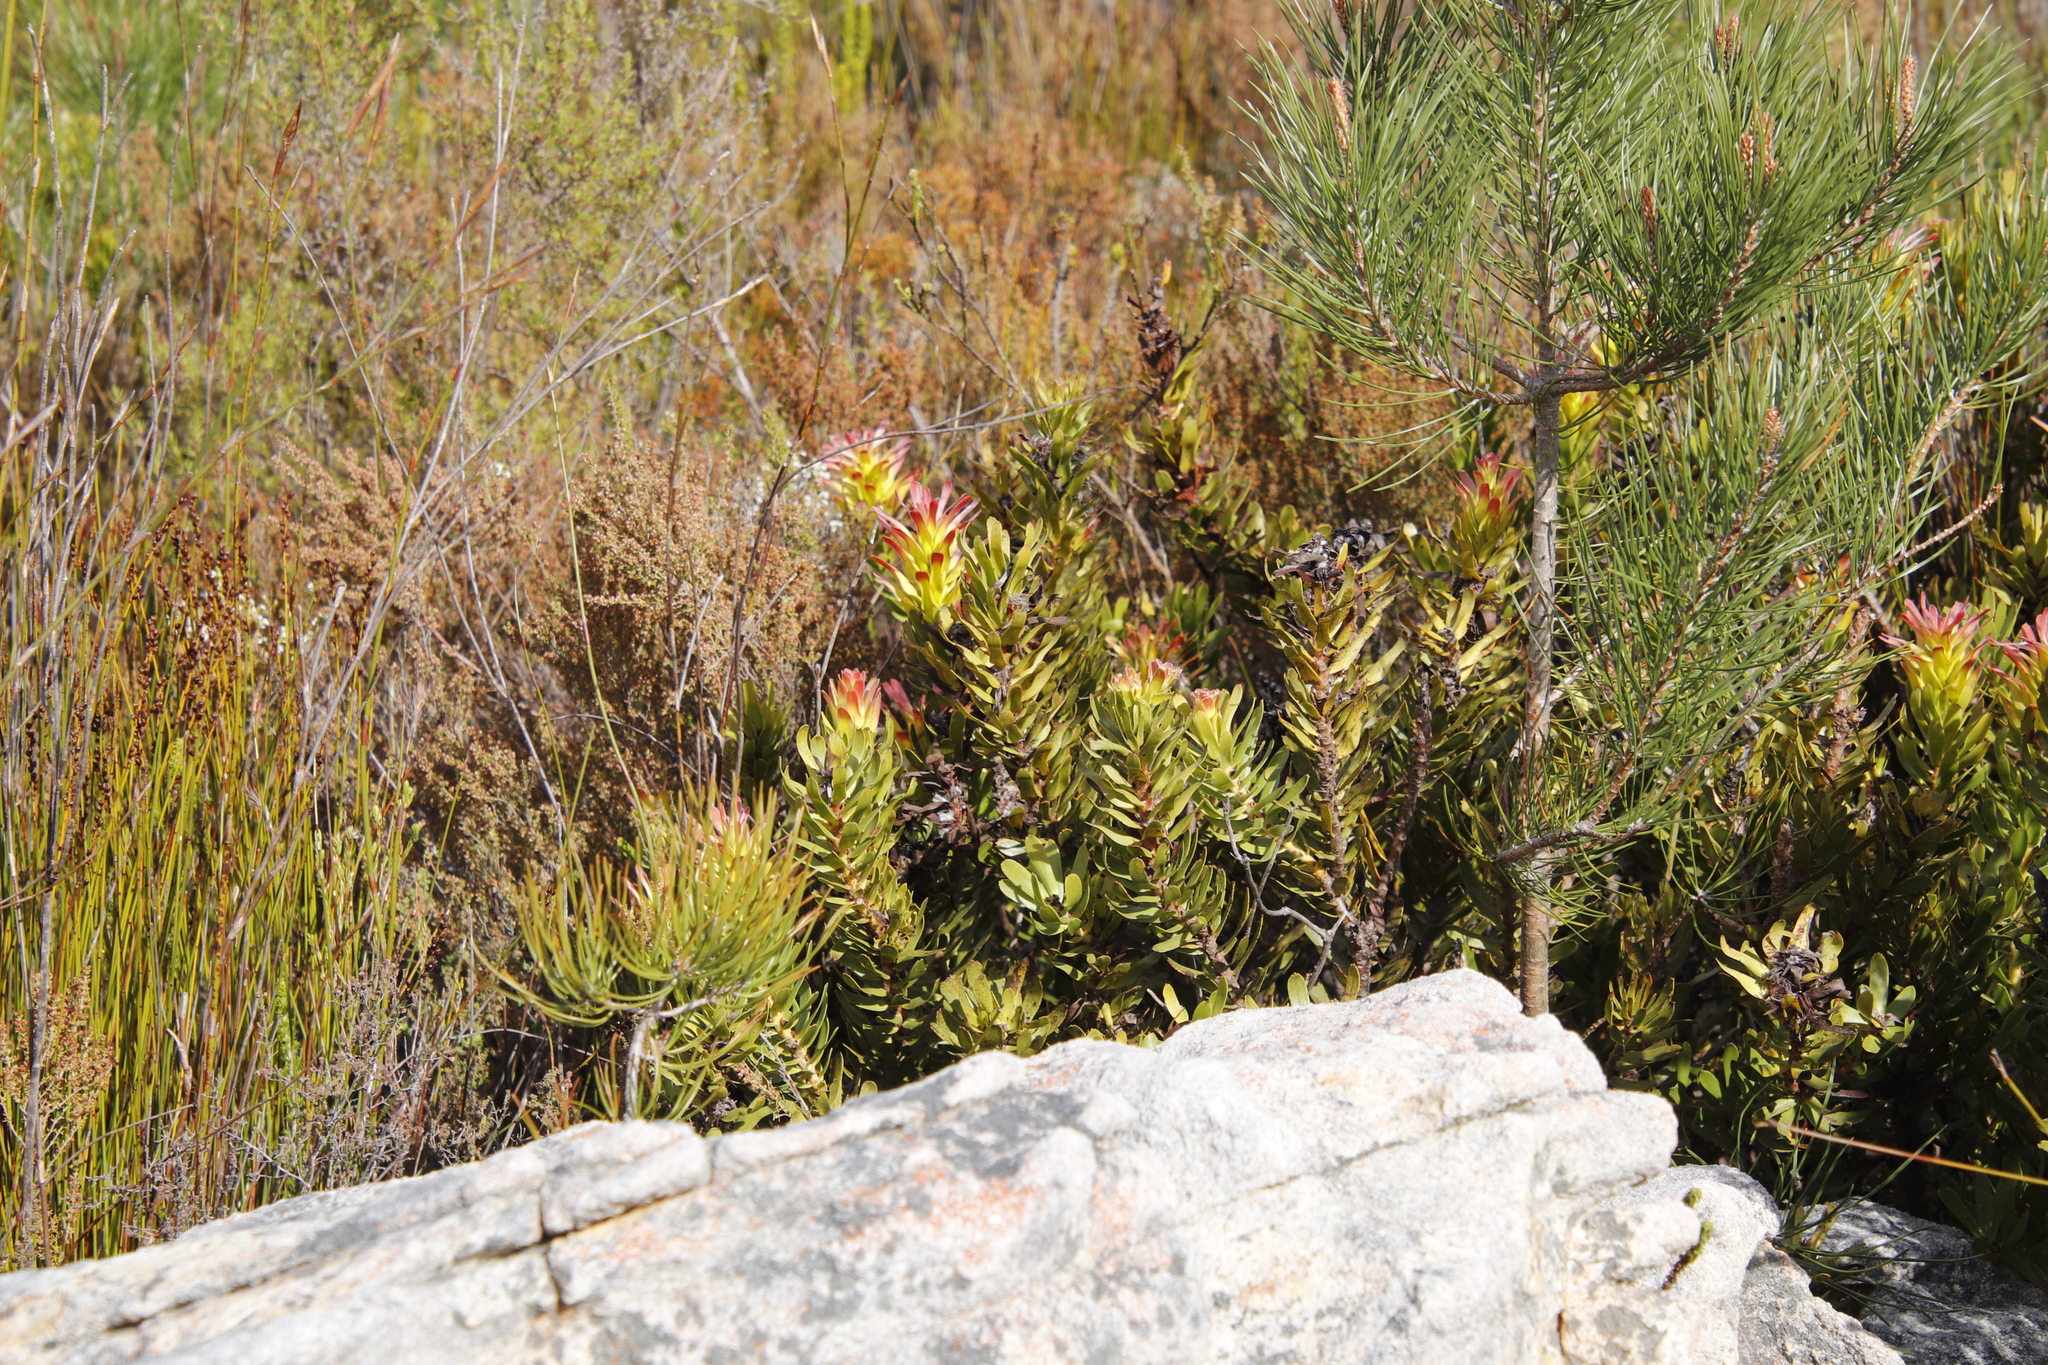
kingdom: Plantae
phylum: Tracheophyta
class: Magnoliopsida
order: Proteales
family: Proteaceae
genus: Mimetes
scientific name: Mimetes cucullatus
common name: Common pagoda
